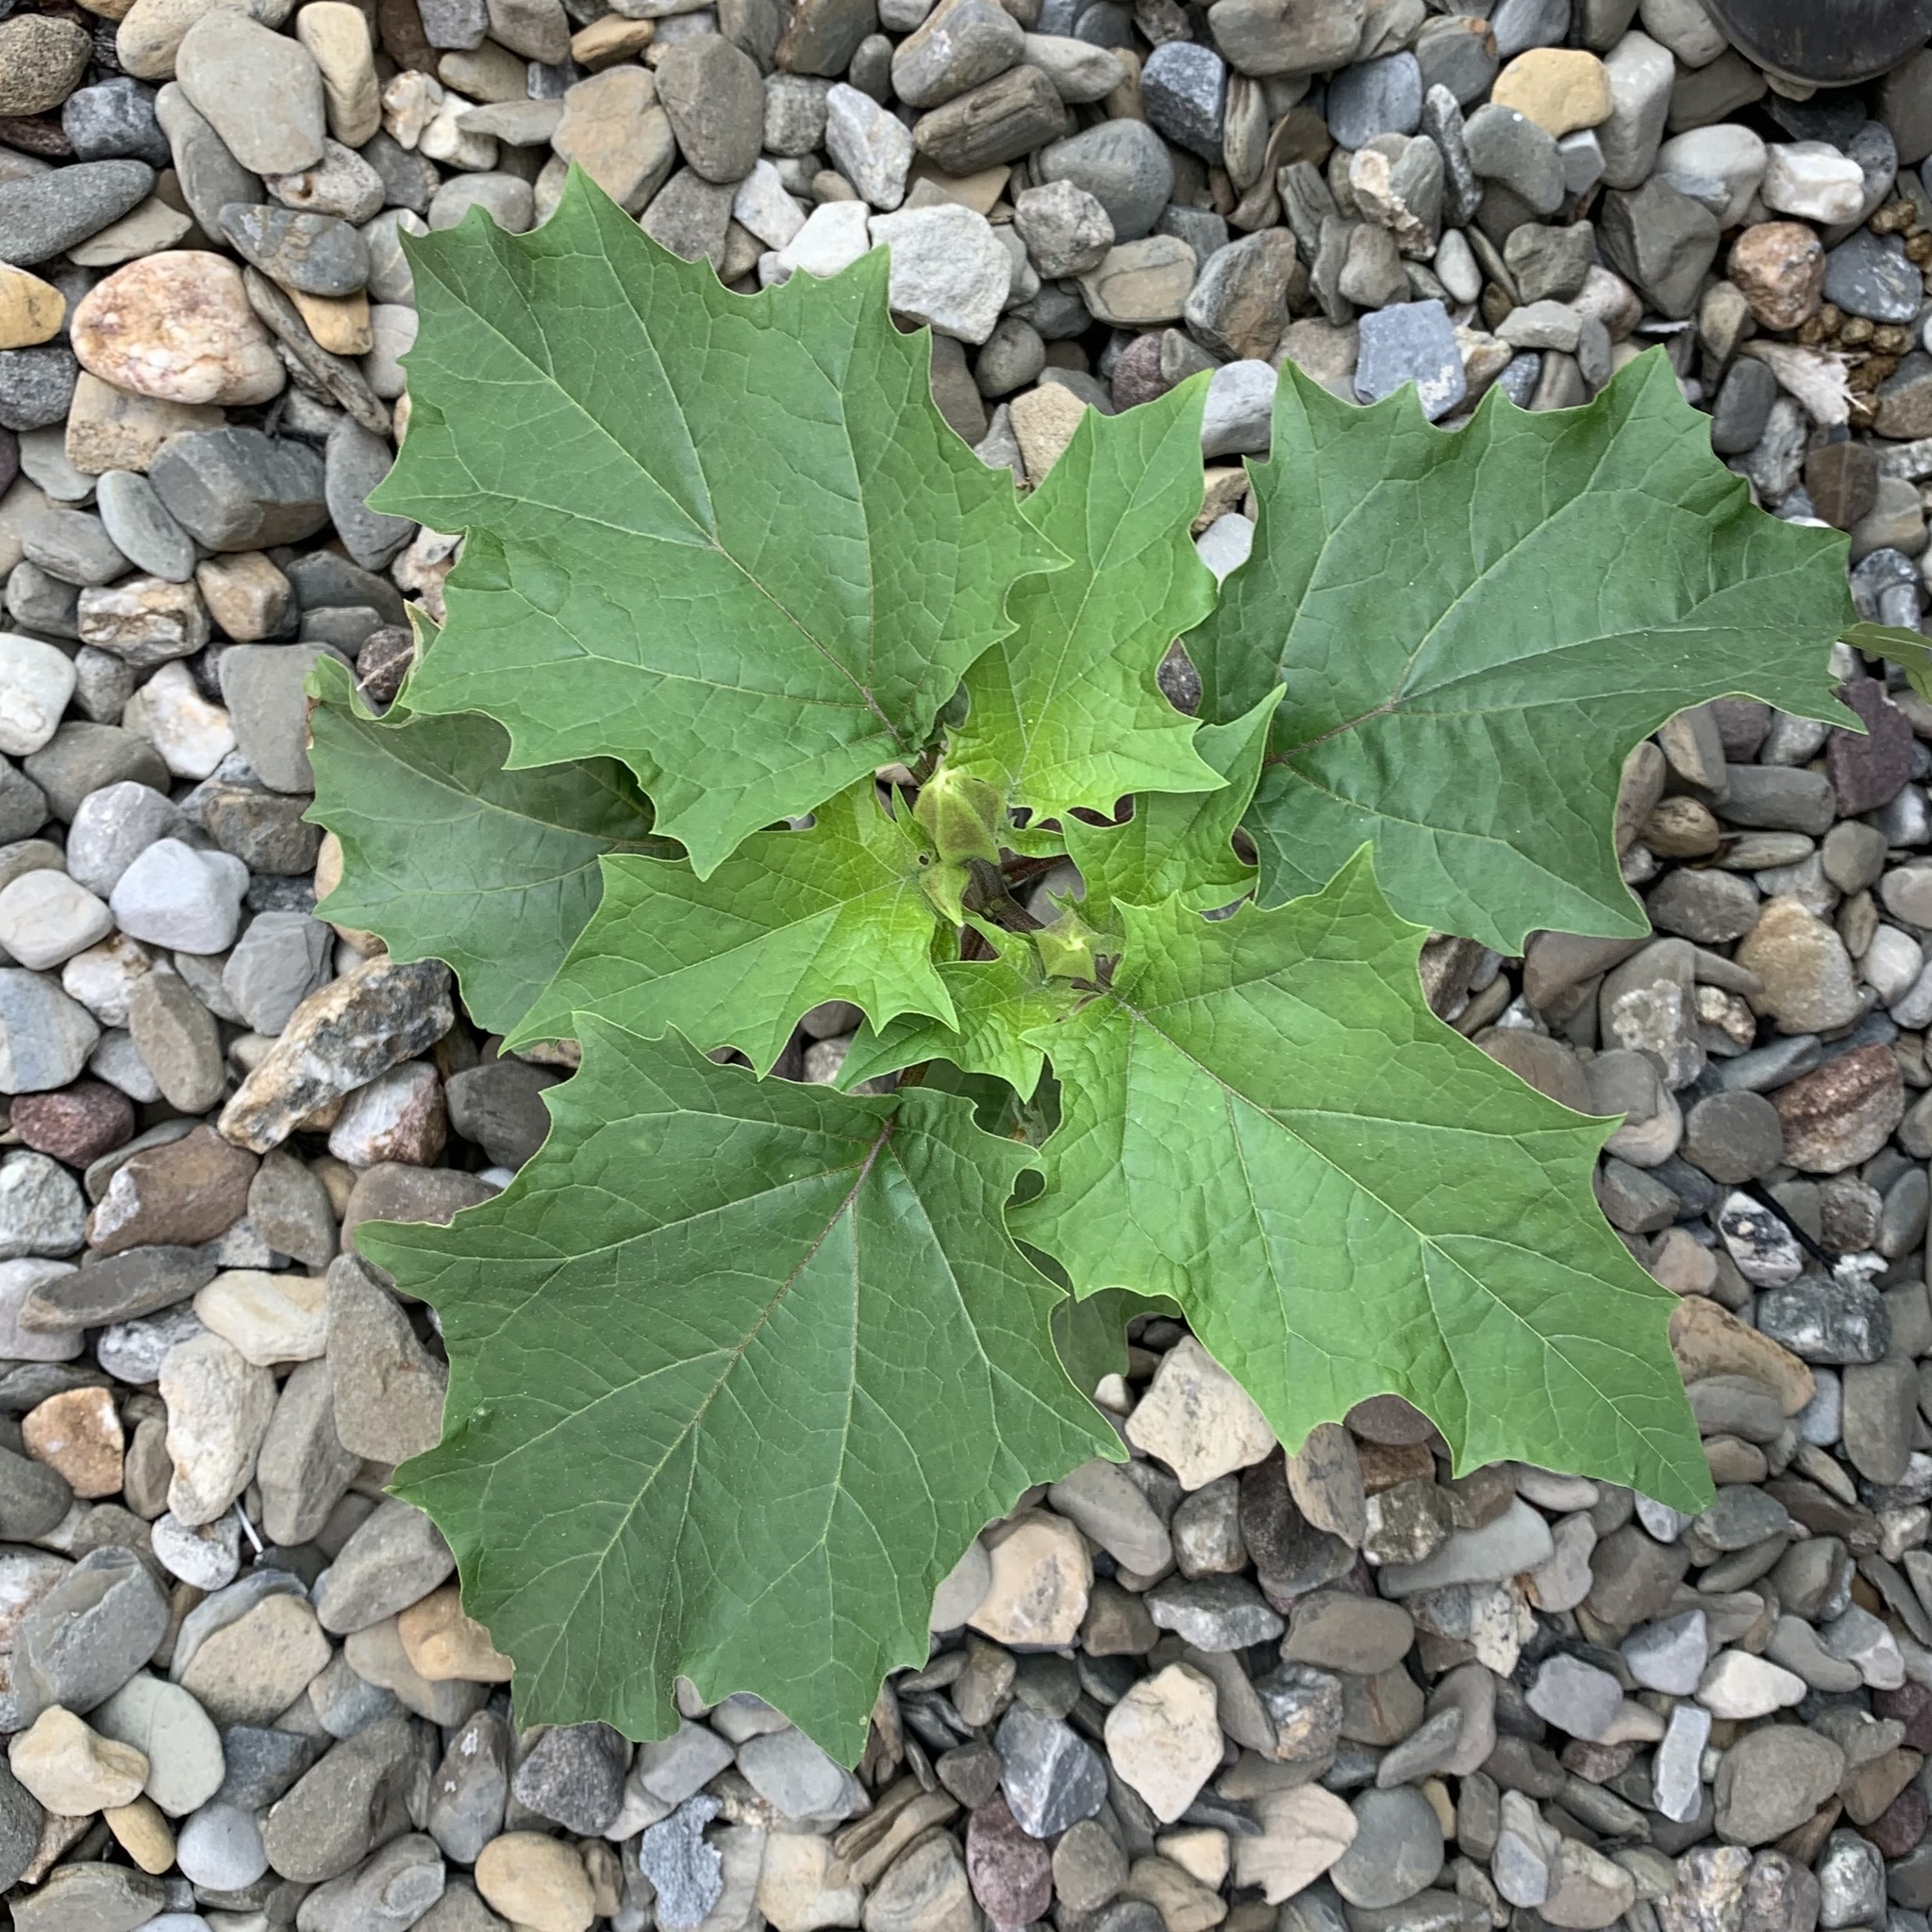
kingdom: Plantae
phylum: Tracheophyta
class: Magnoliopsida
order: Solanales
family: Solanaceae
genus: Datura
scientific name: Datura stramonium
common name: Thorn-apple
